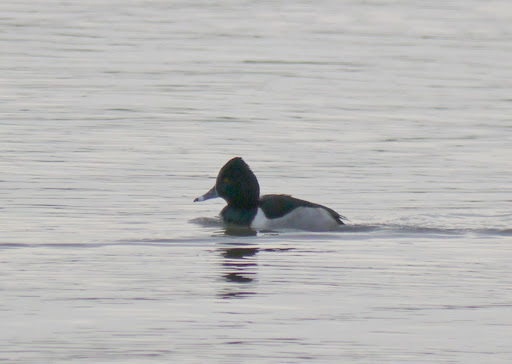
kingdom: Animalia
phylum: Chordata
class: Aves
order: Anseriformes
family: Anatidae
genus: Aythya
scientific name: Aythya collaris
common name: Ring-necked duck
